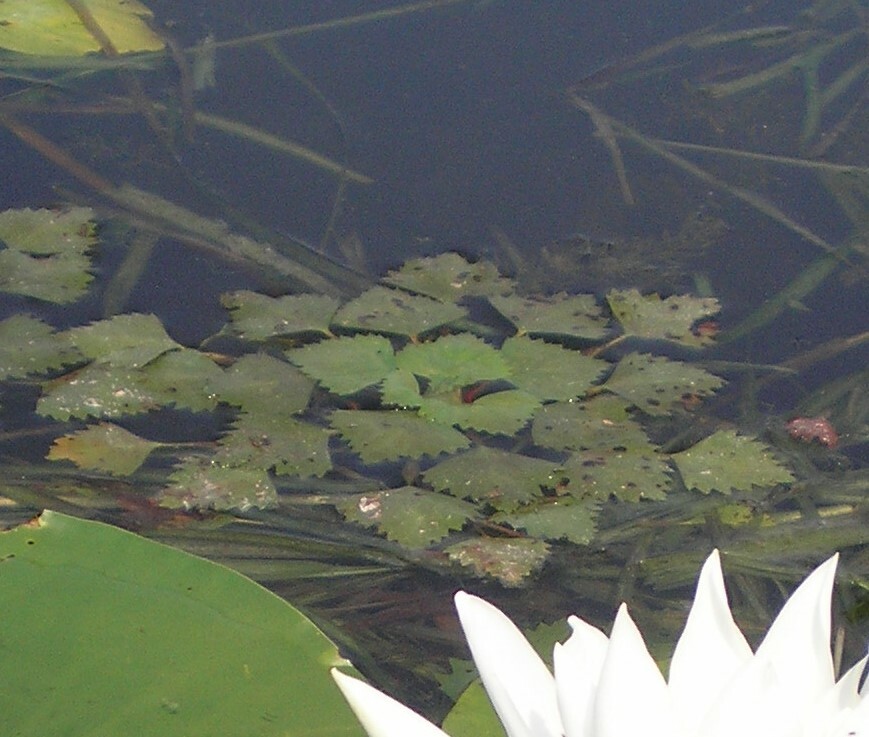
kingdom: Plantae
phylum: Tracheophyta
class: Magnoliopsida
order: Myrtales
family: Lythraceae
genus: Trapa
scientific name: Trapa natans
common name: Water chestnut
